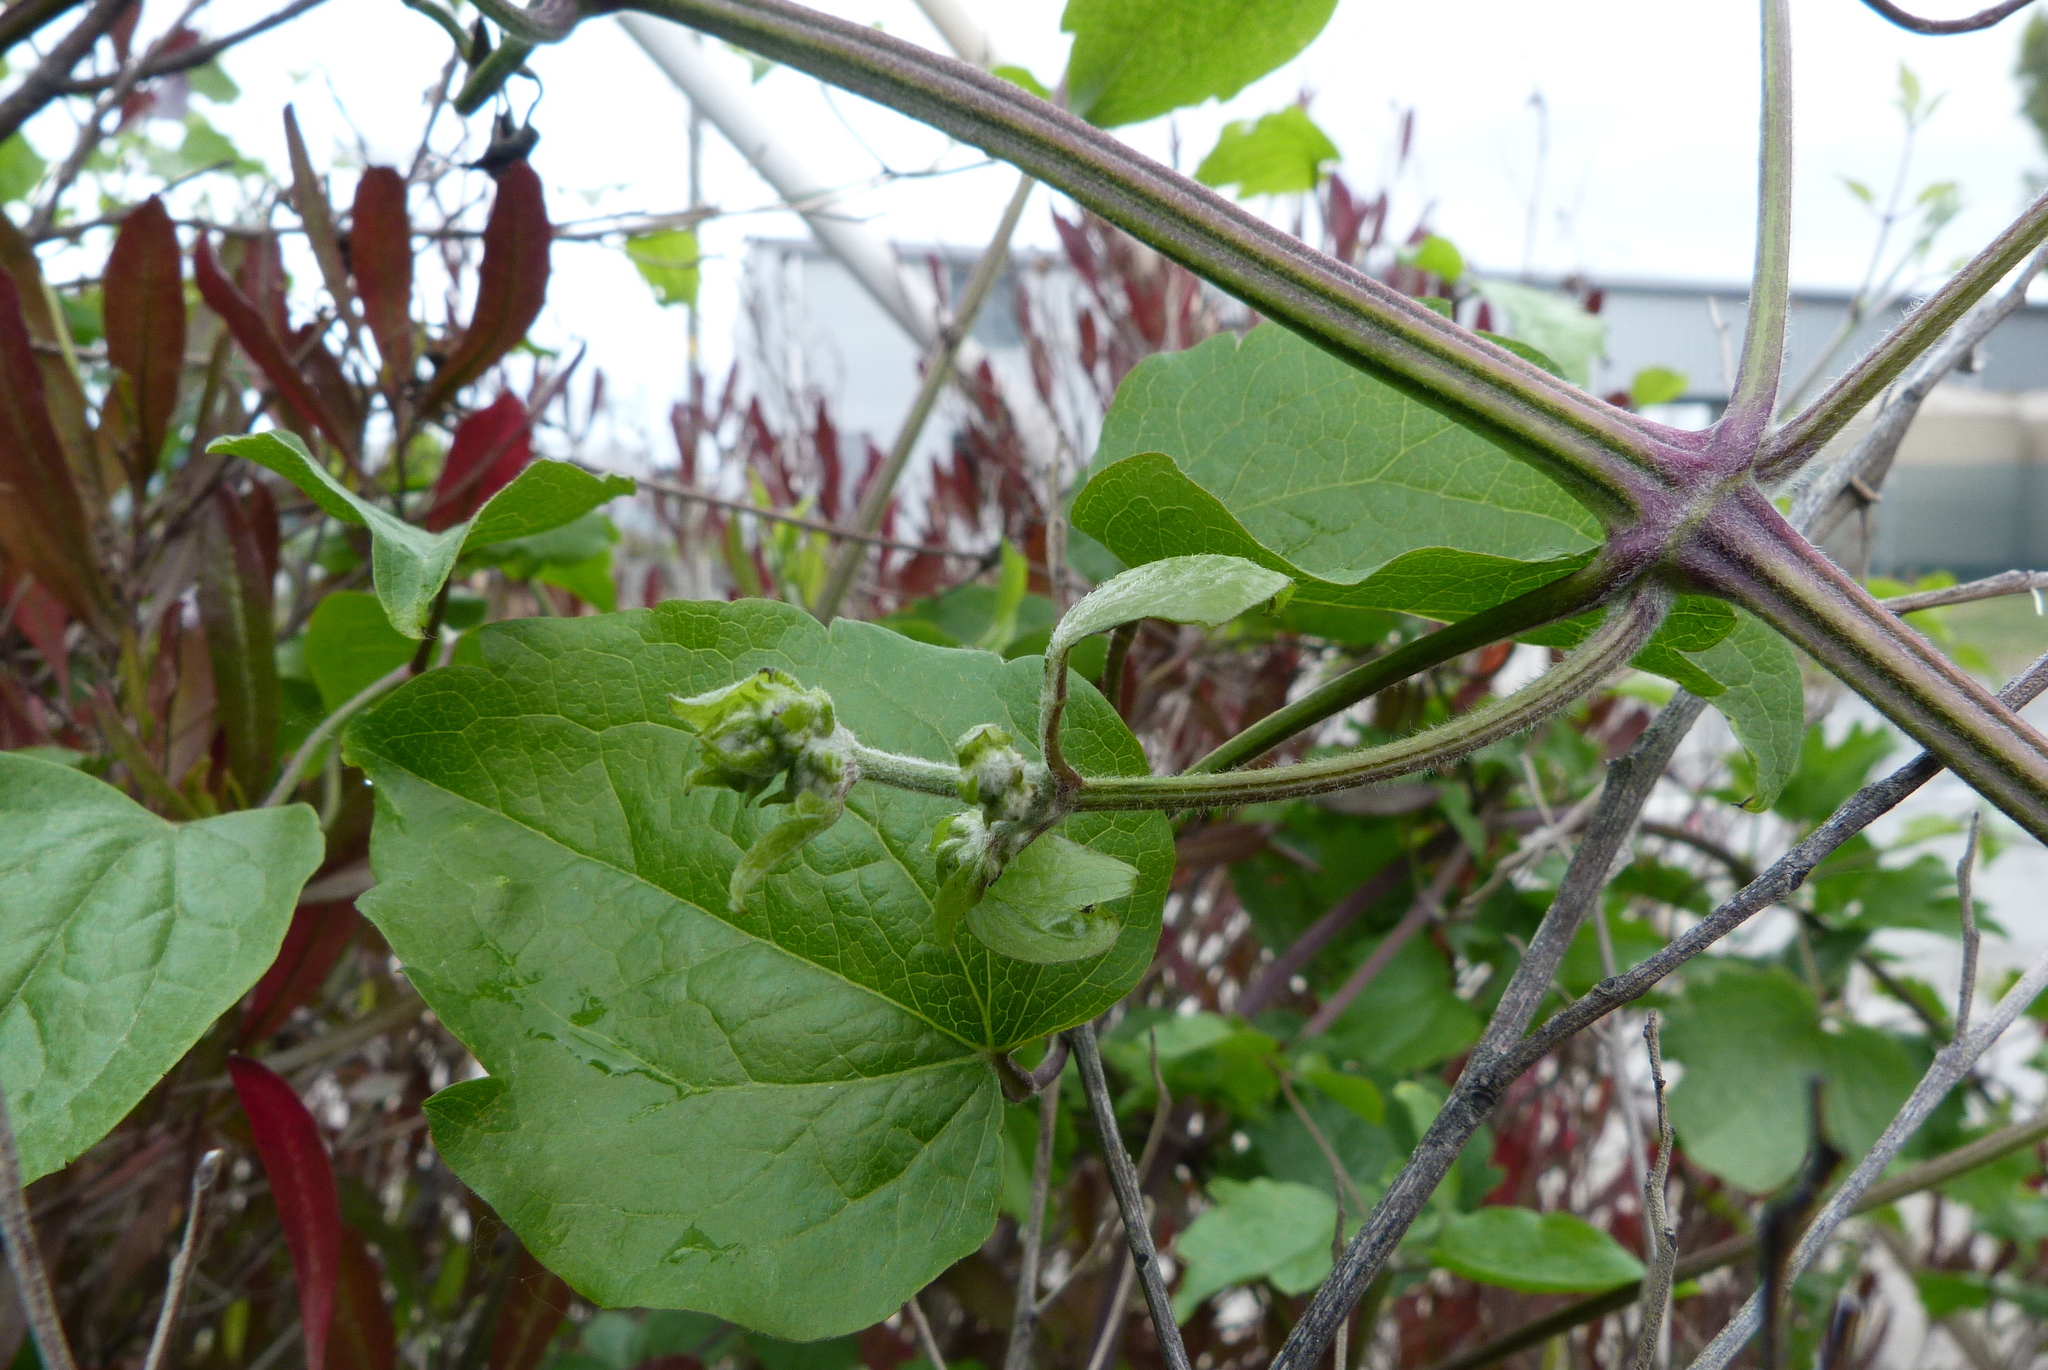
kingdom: Plantae
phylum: Tracheophyta
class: Magnoliopsida
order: Ranunculales
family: Ranunculaceae
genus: Clematis
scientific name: Clematis vitalba
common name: Evergreen clematis
